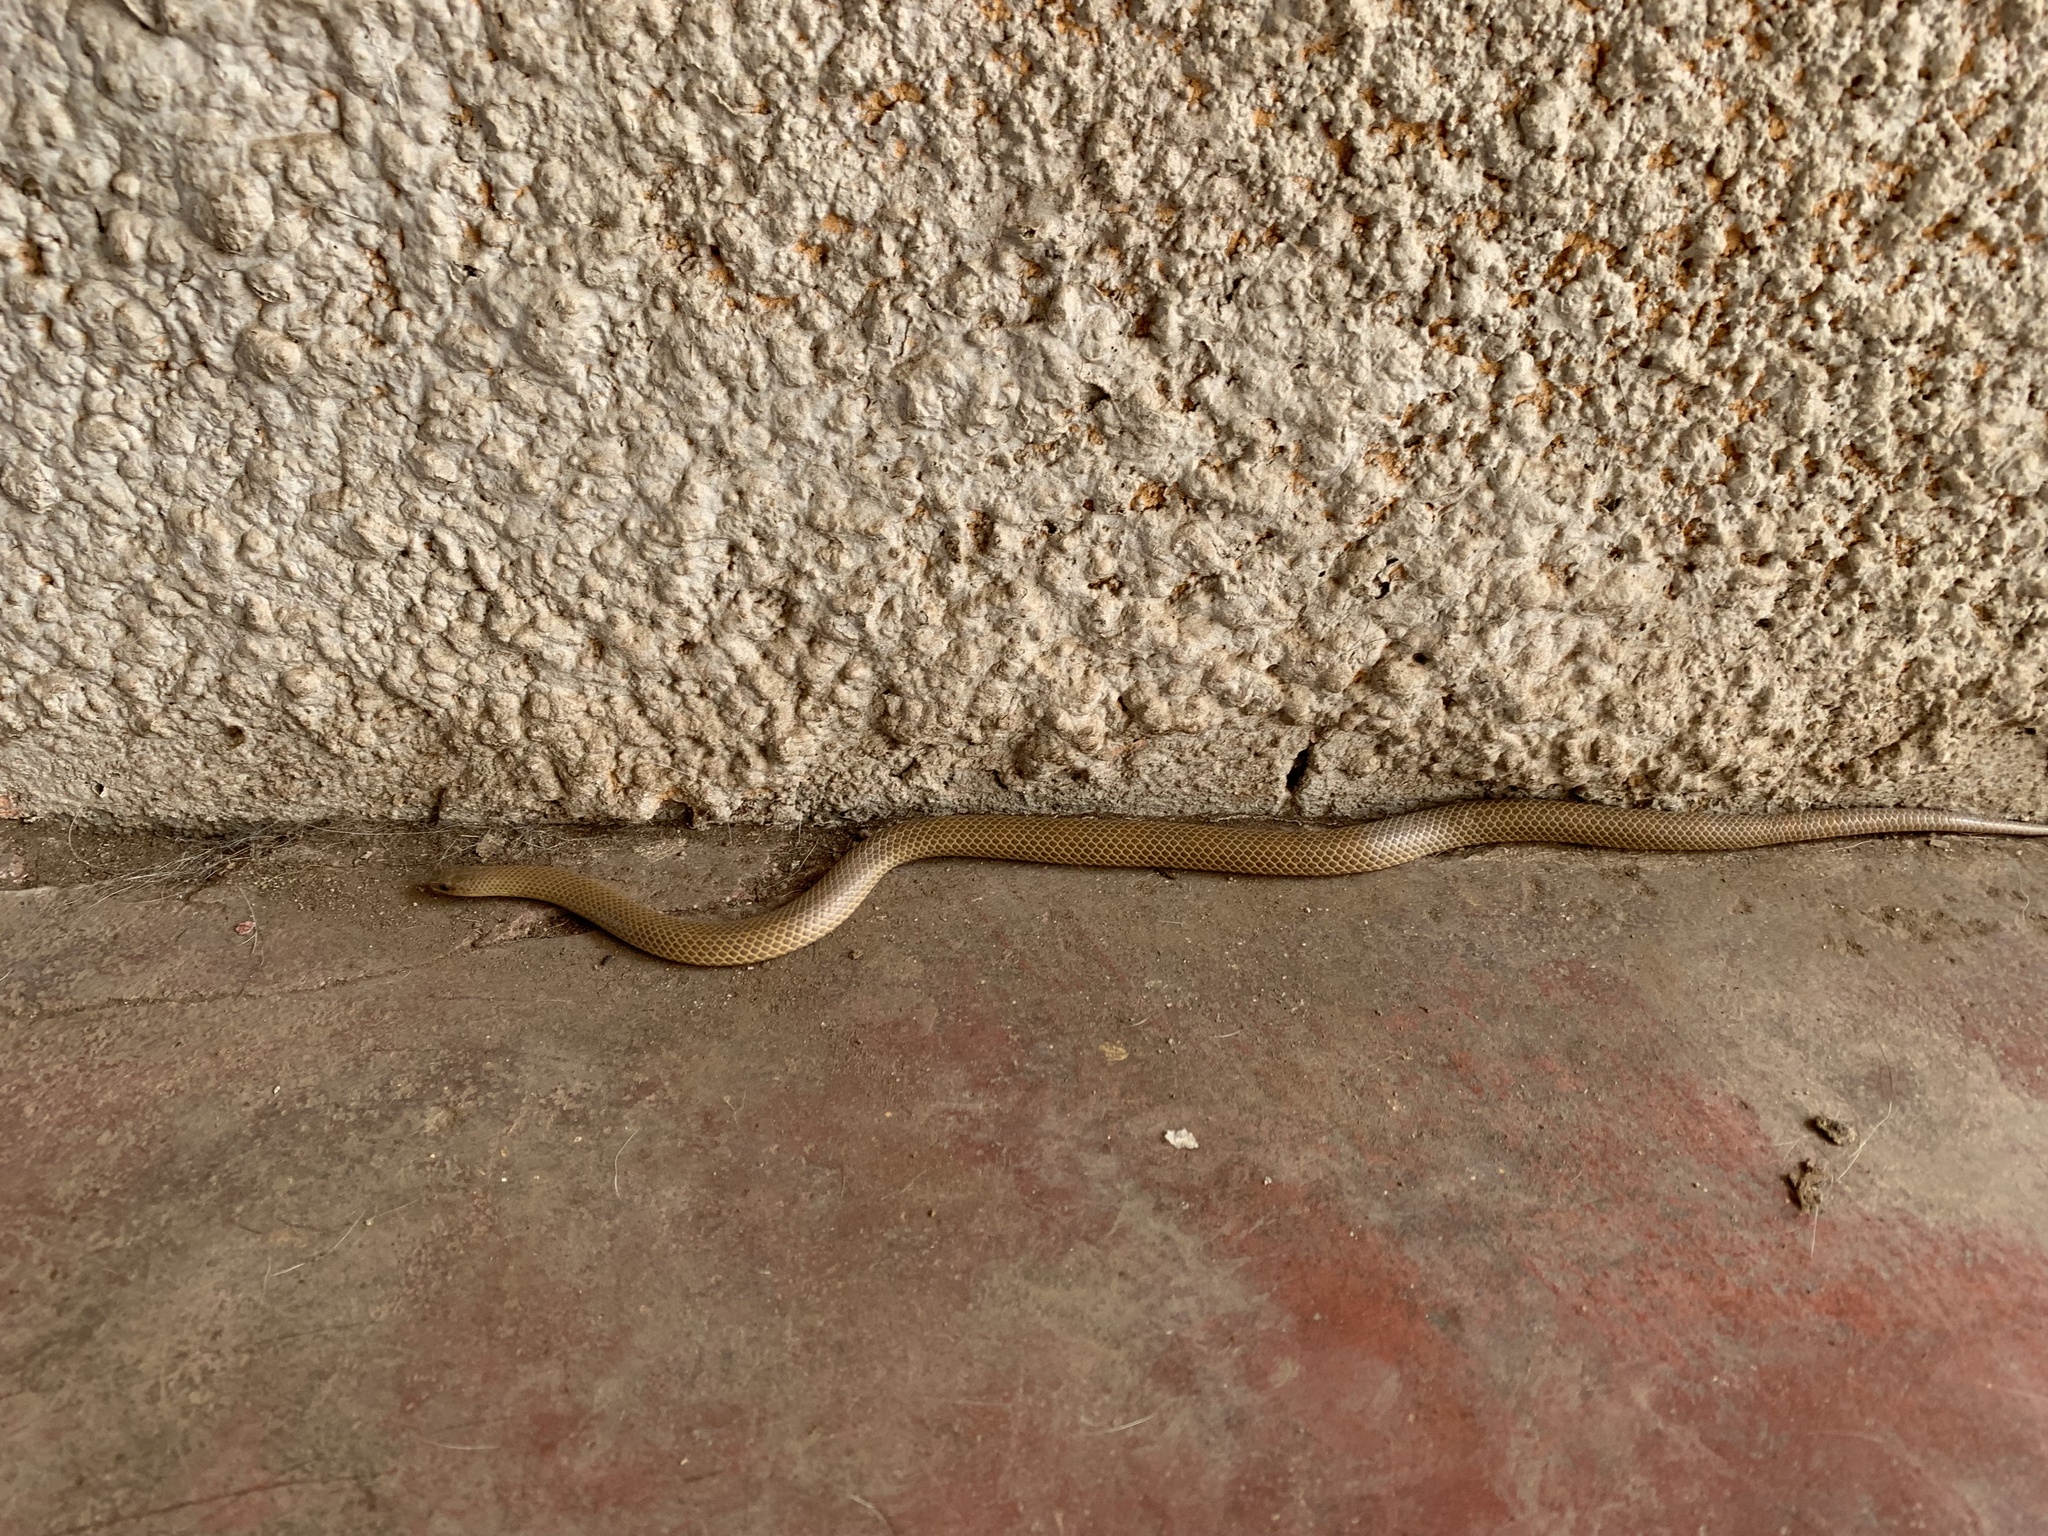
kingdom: Animalia
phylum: Chordata
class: Squamata
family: Colubridae
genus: Sonora
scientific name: Sonora mosaueri
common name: Mosauer’s ground snake
